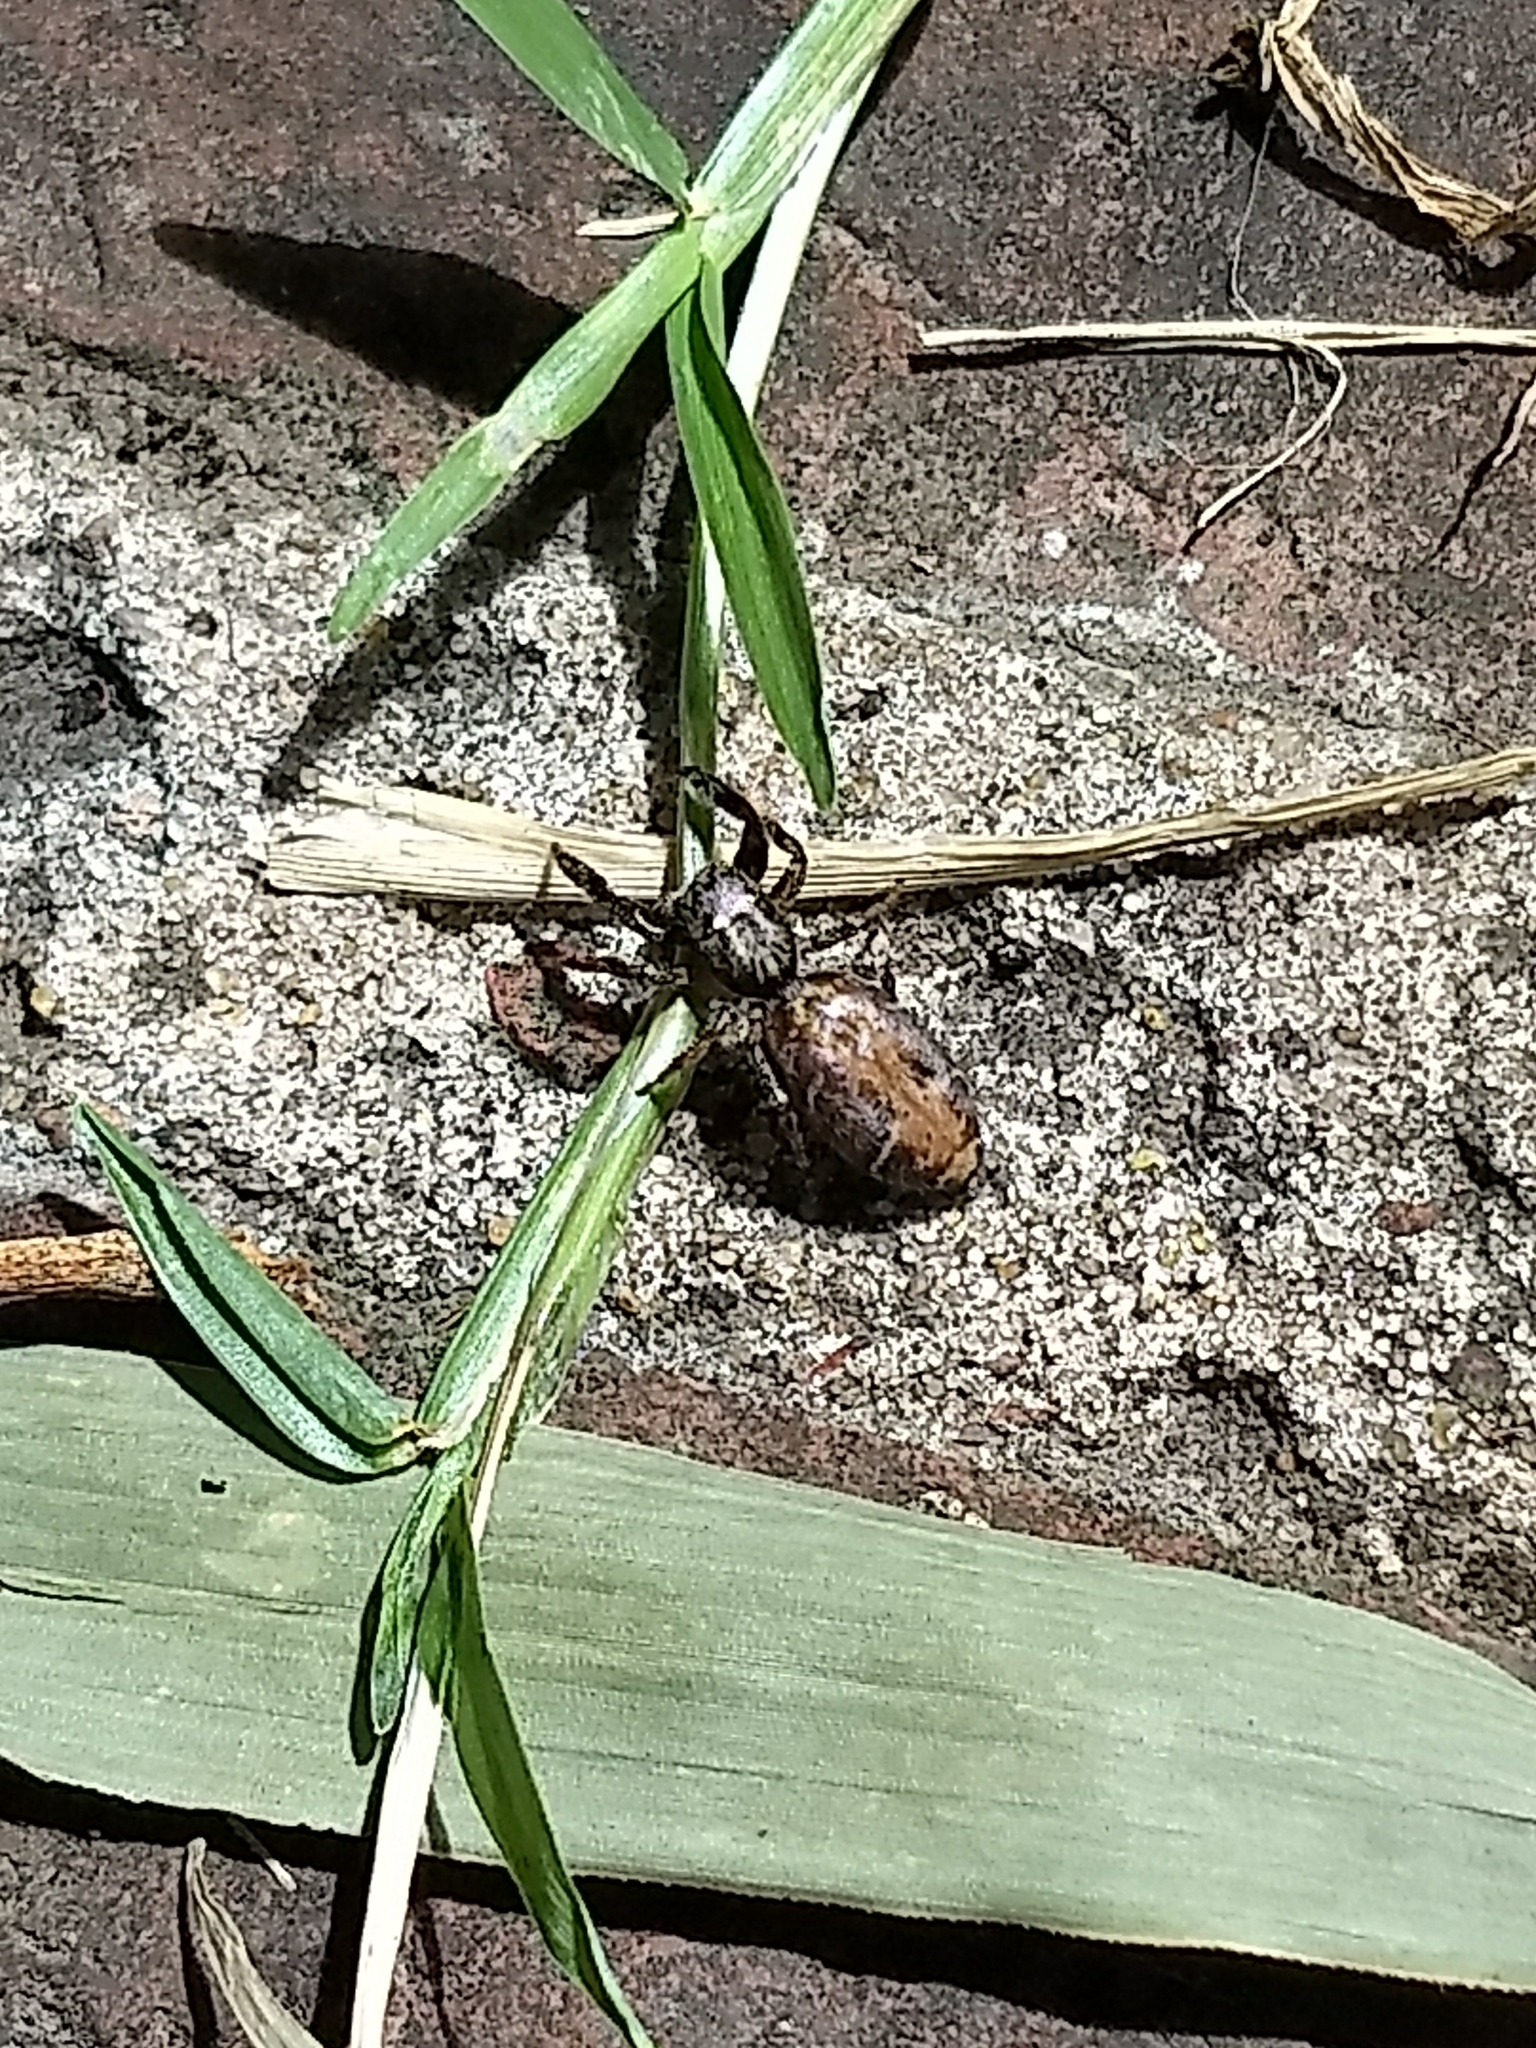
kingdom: Animalia
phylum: Arthropoda
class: Arachnida
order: Araneae
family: Salticidae
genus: Breda
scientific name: Breda
